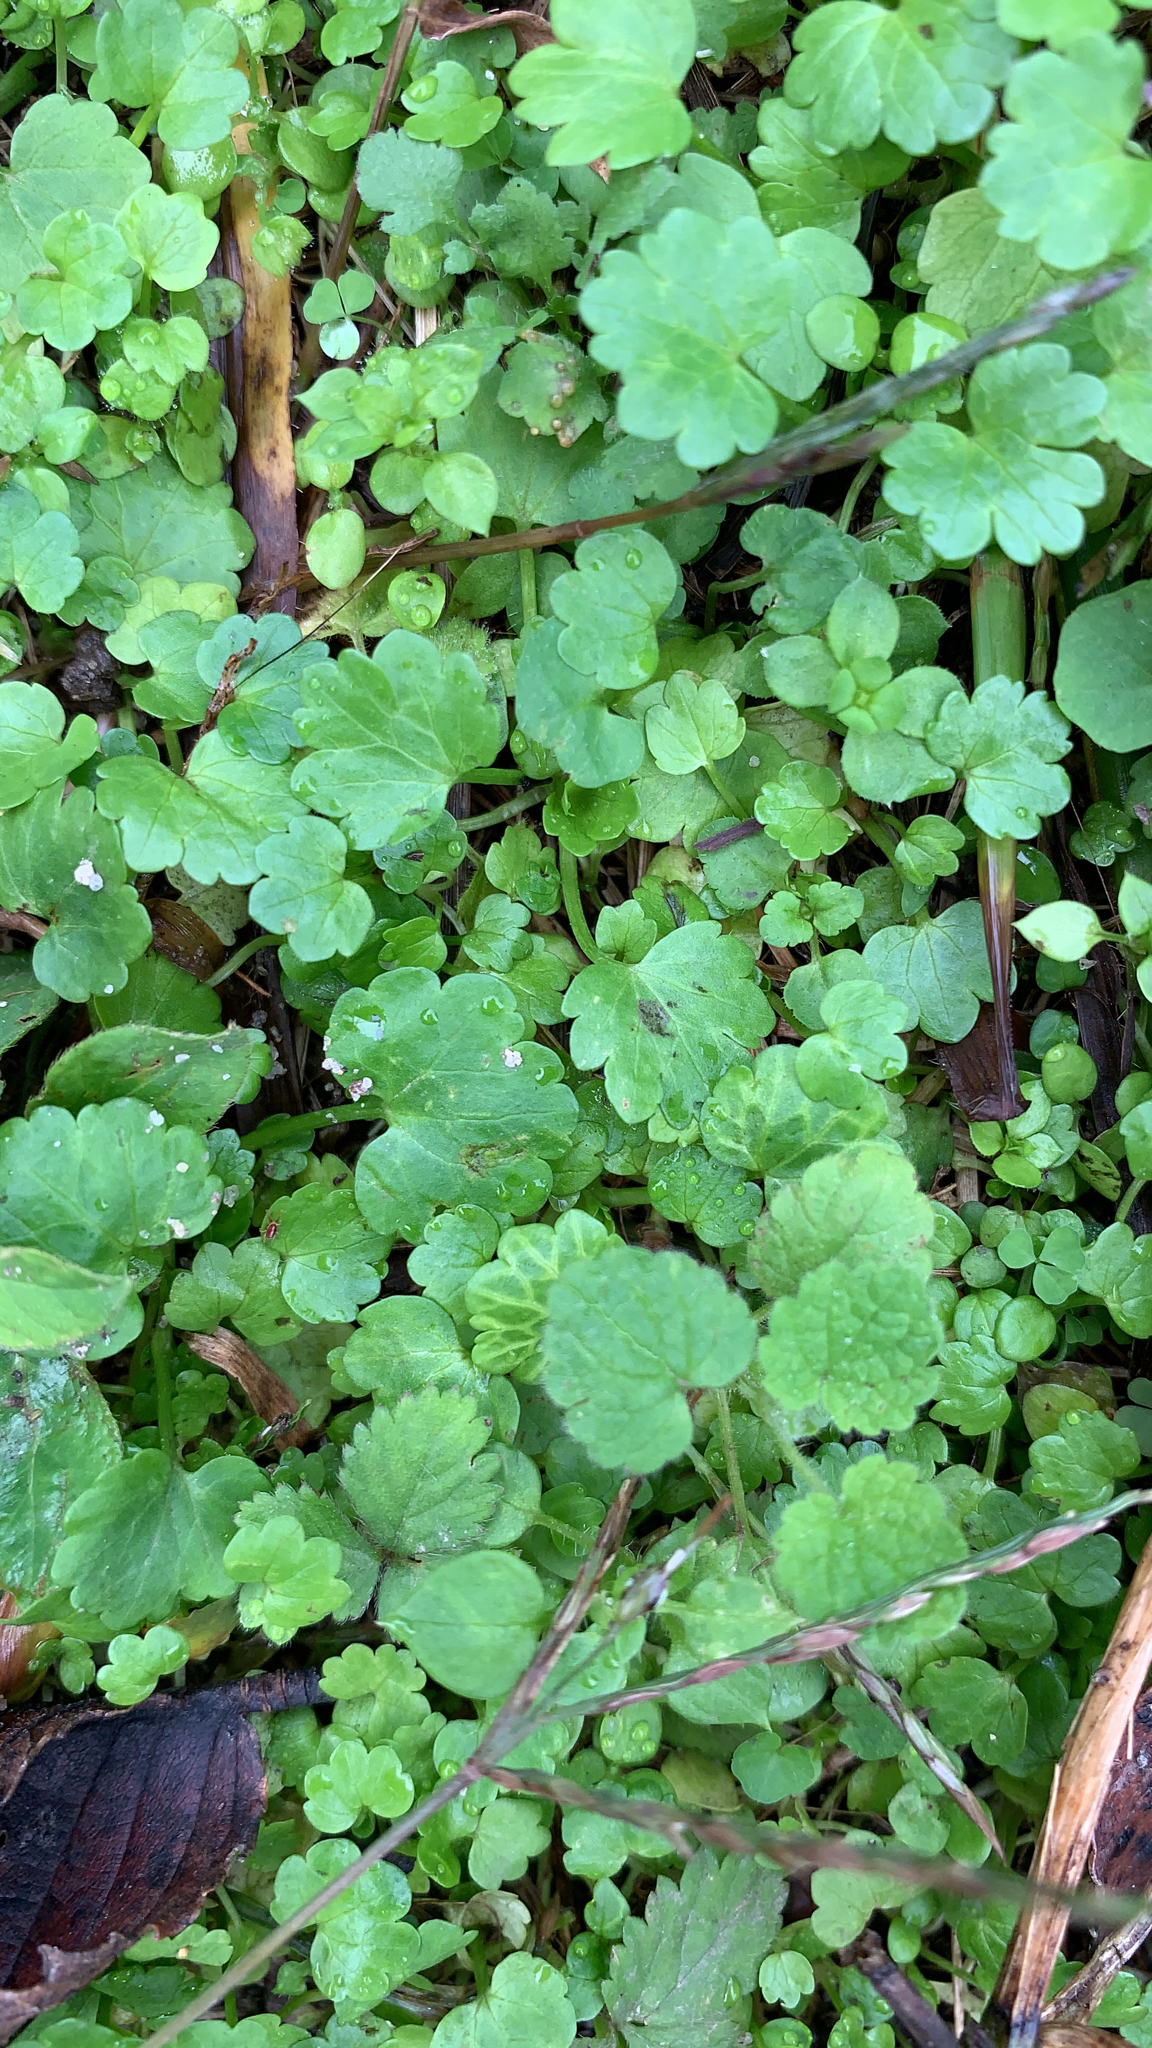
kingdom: Plantae
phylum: Tracheophyta
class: Magnoliopsida
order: Lamiales
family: Plantaginaceae
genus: Veronica
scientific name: Veronica persica
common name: Common field-speedwell
